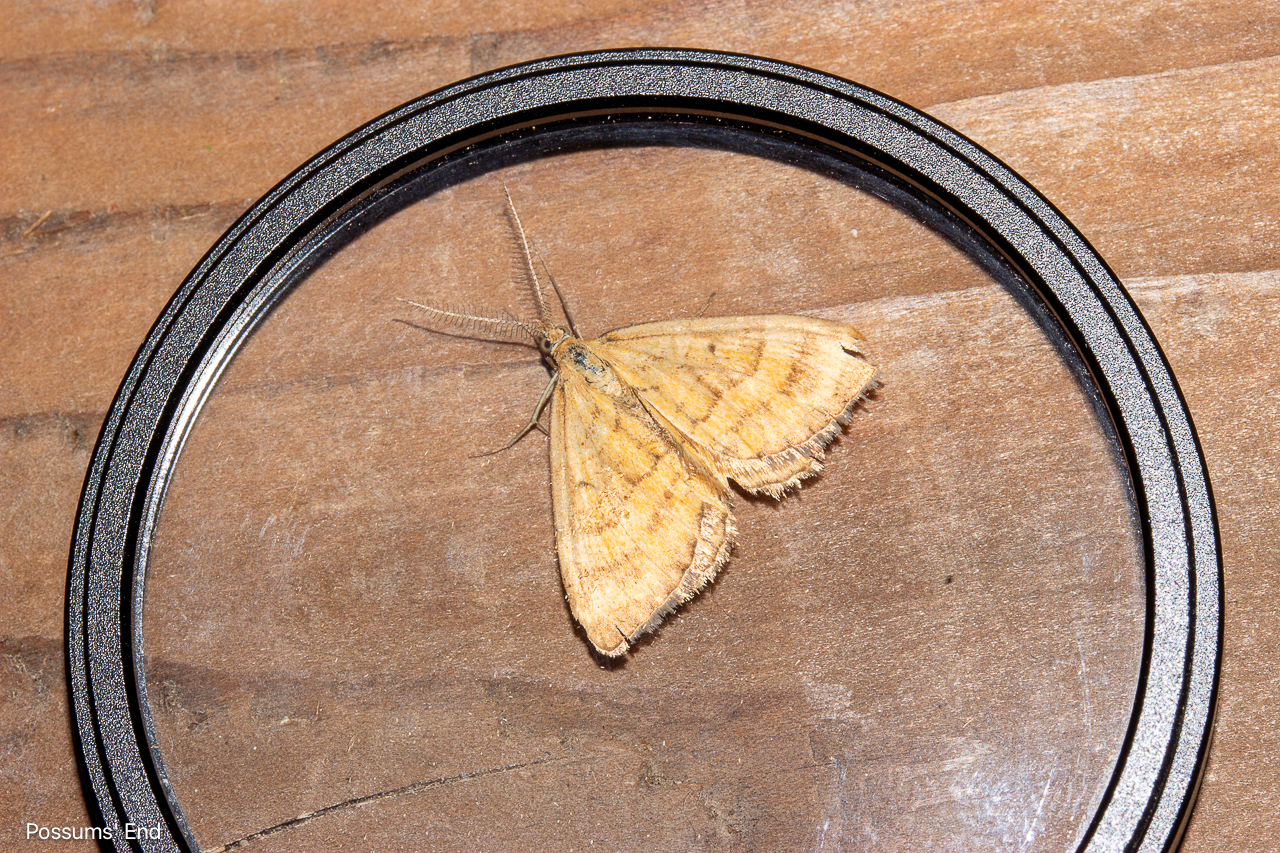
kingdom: Animalia
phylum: Arthropoda
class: Insecta
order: Lepidoptera
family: Geometridae
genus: Asaphodes
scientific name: Asaphodes abrogata
